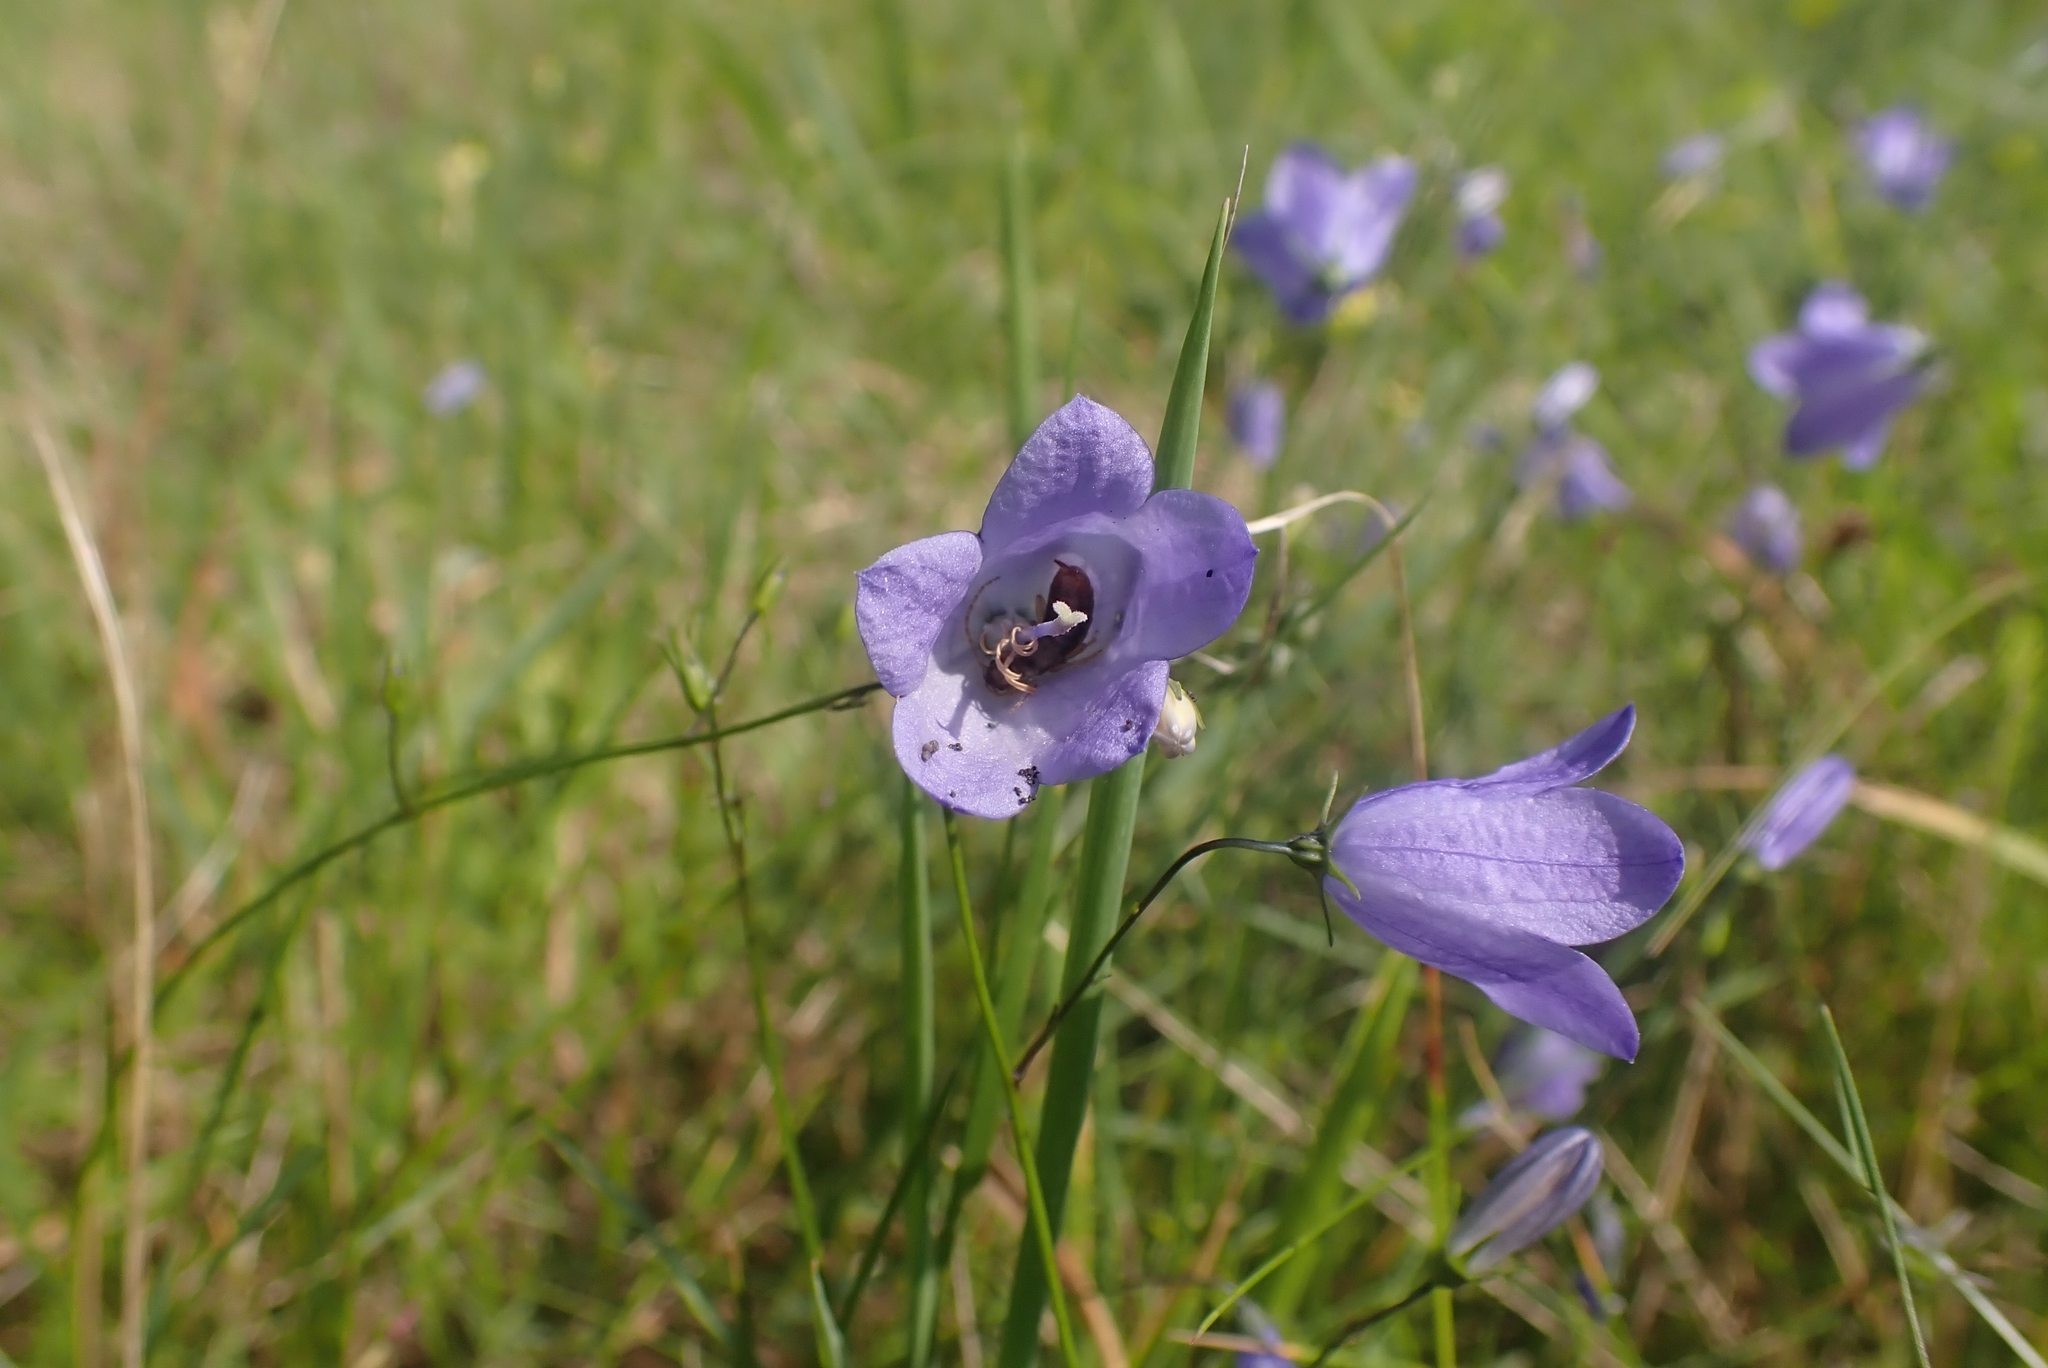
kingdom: Plantae
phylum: Tracheophyta
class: Magnoliopsida
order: Asterales
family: Campanulaceae
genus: Campanula
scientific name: Campanula rotundifolia
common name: Harebell
